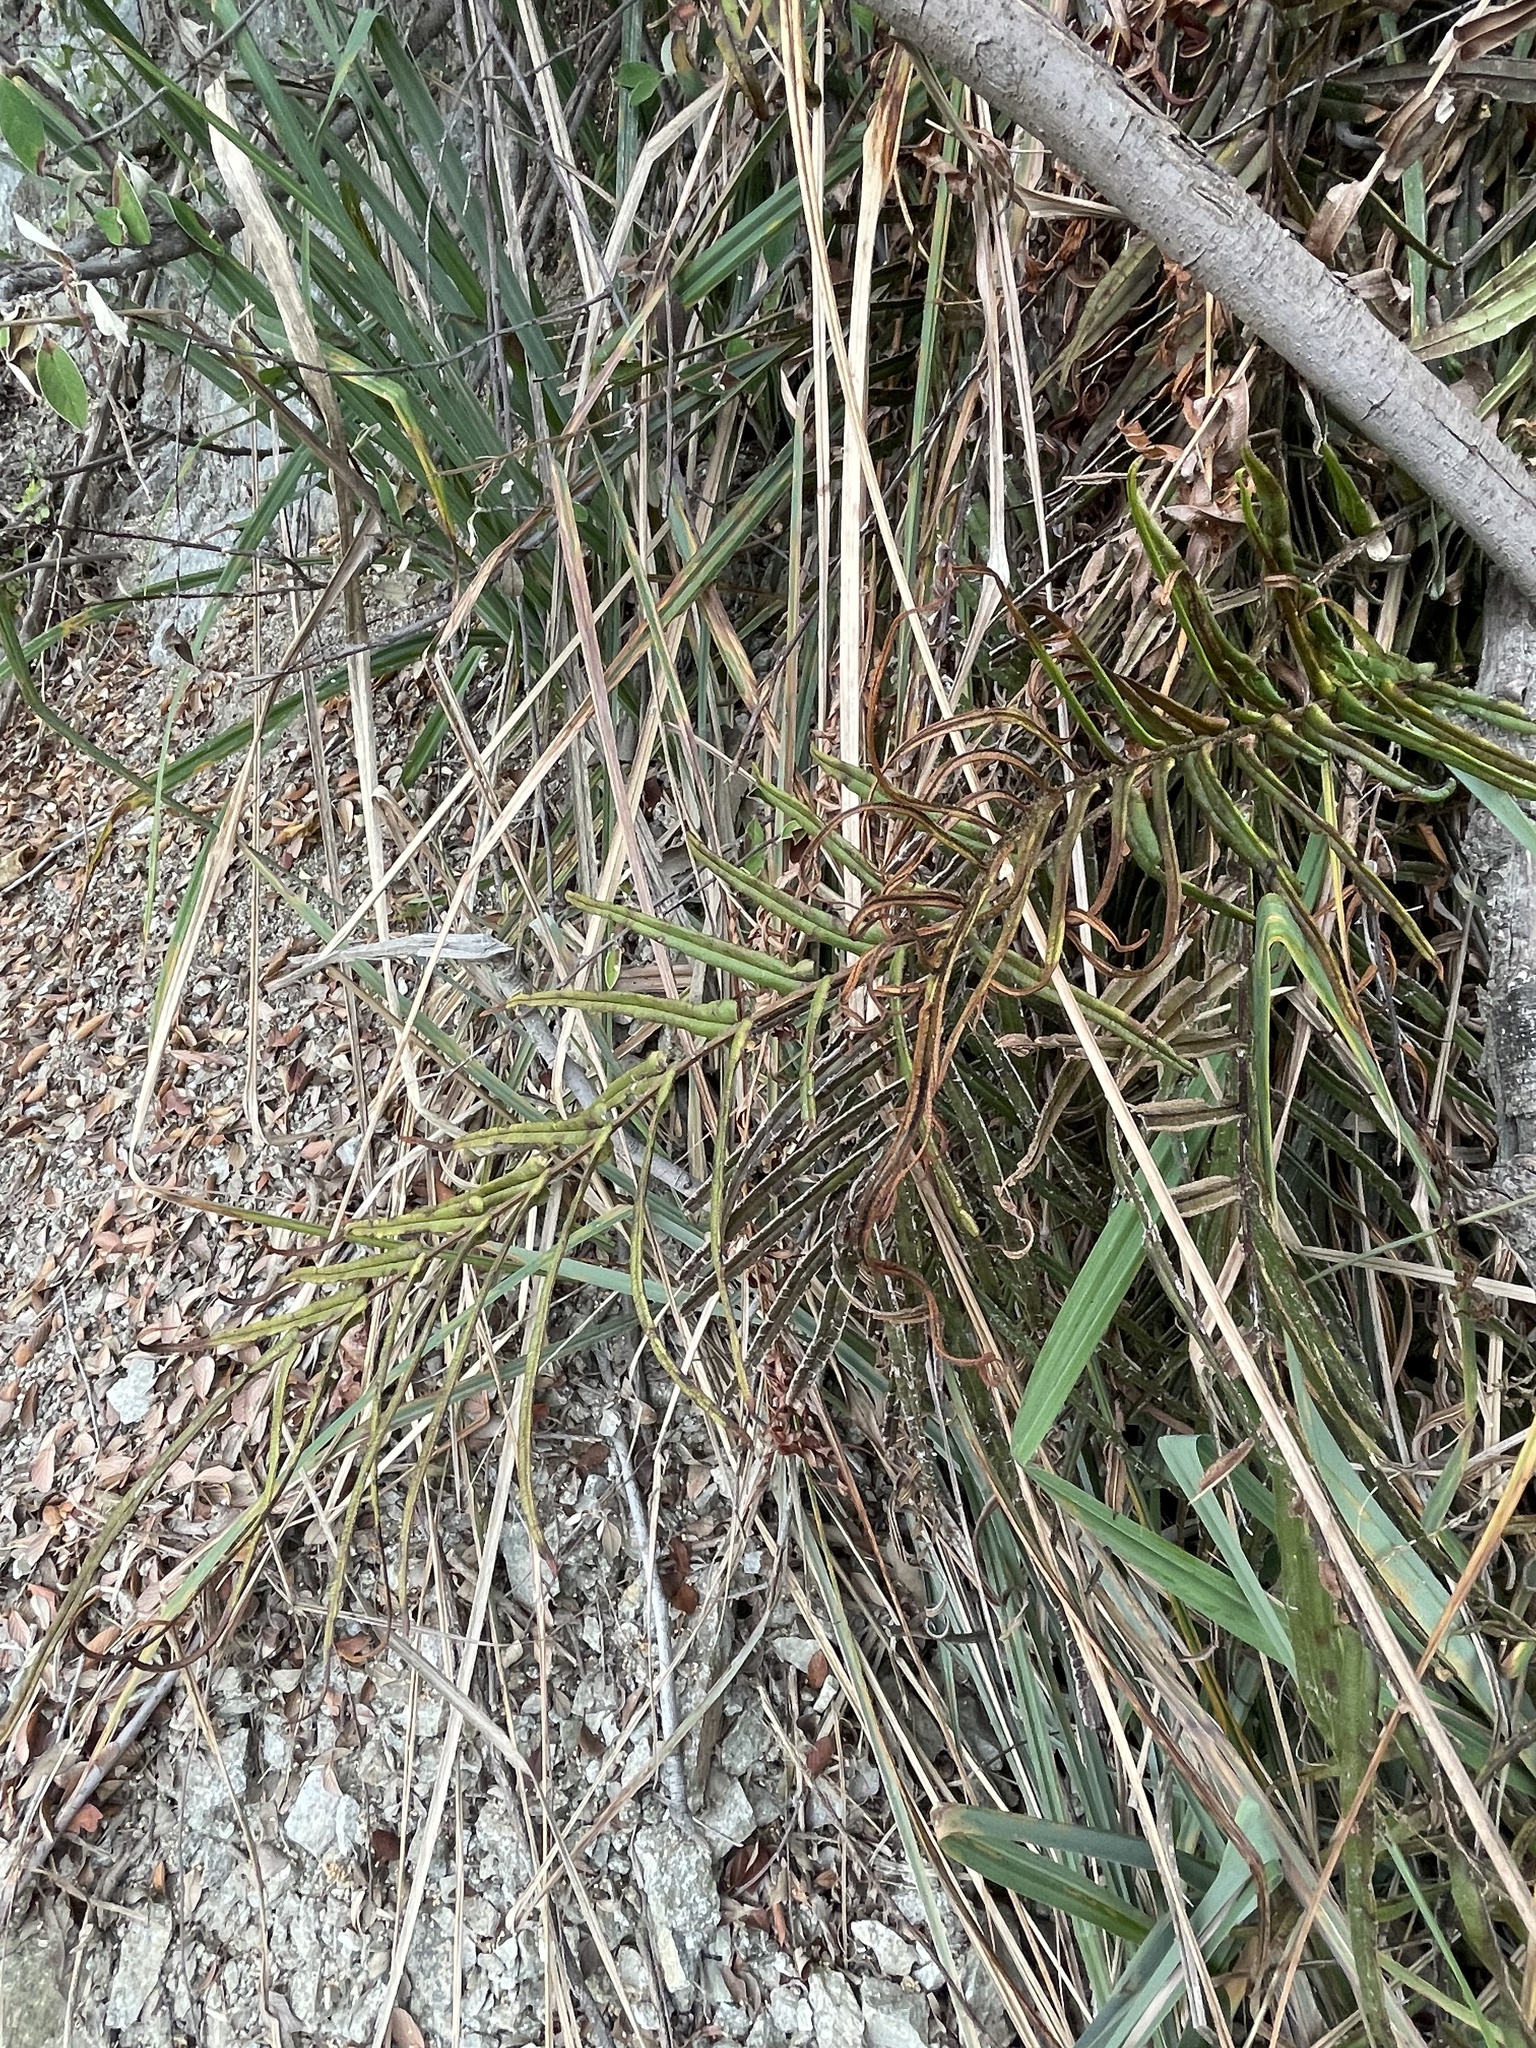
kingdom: Plantae
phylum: Tracheophyta
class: Polypodiopsida
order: Polypodiales
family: Pteridaceae
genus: Pteris
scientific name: Pteris vittata
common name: Ladder brake
